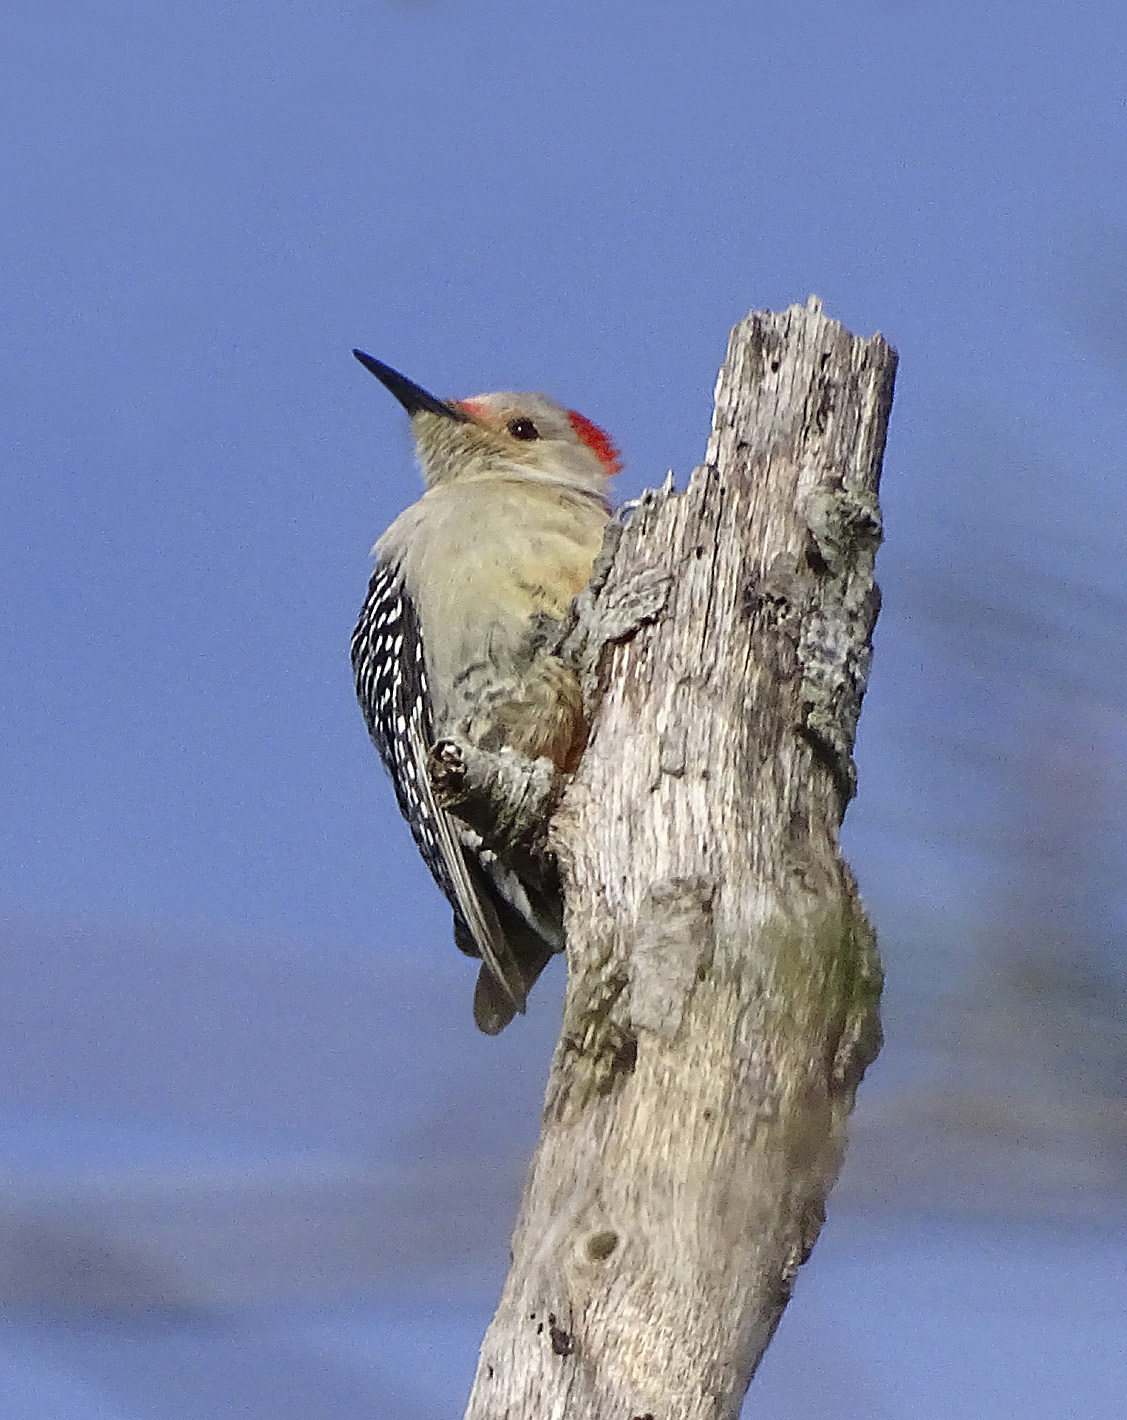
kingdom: Animalia
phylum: Chordata
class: Aves
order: Piciformes
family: Picidae
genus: Melanerpes
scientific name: Melanerpes carolinus
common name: Red-bellied woodpecker
